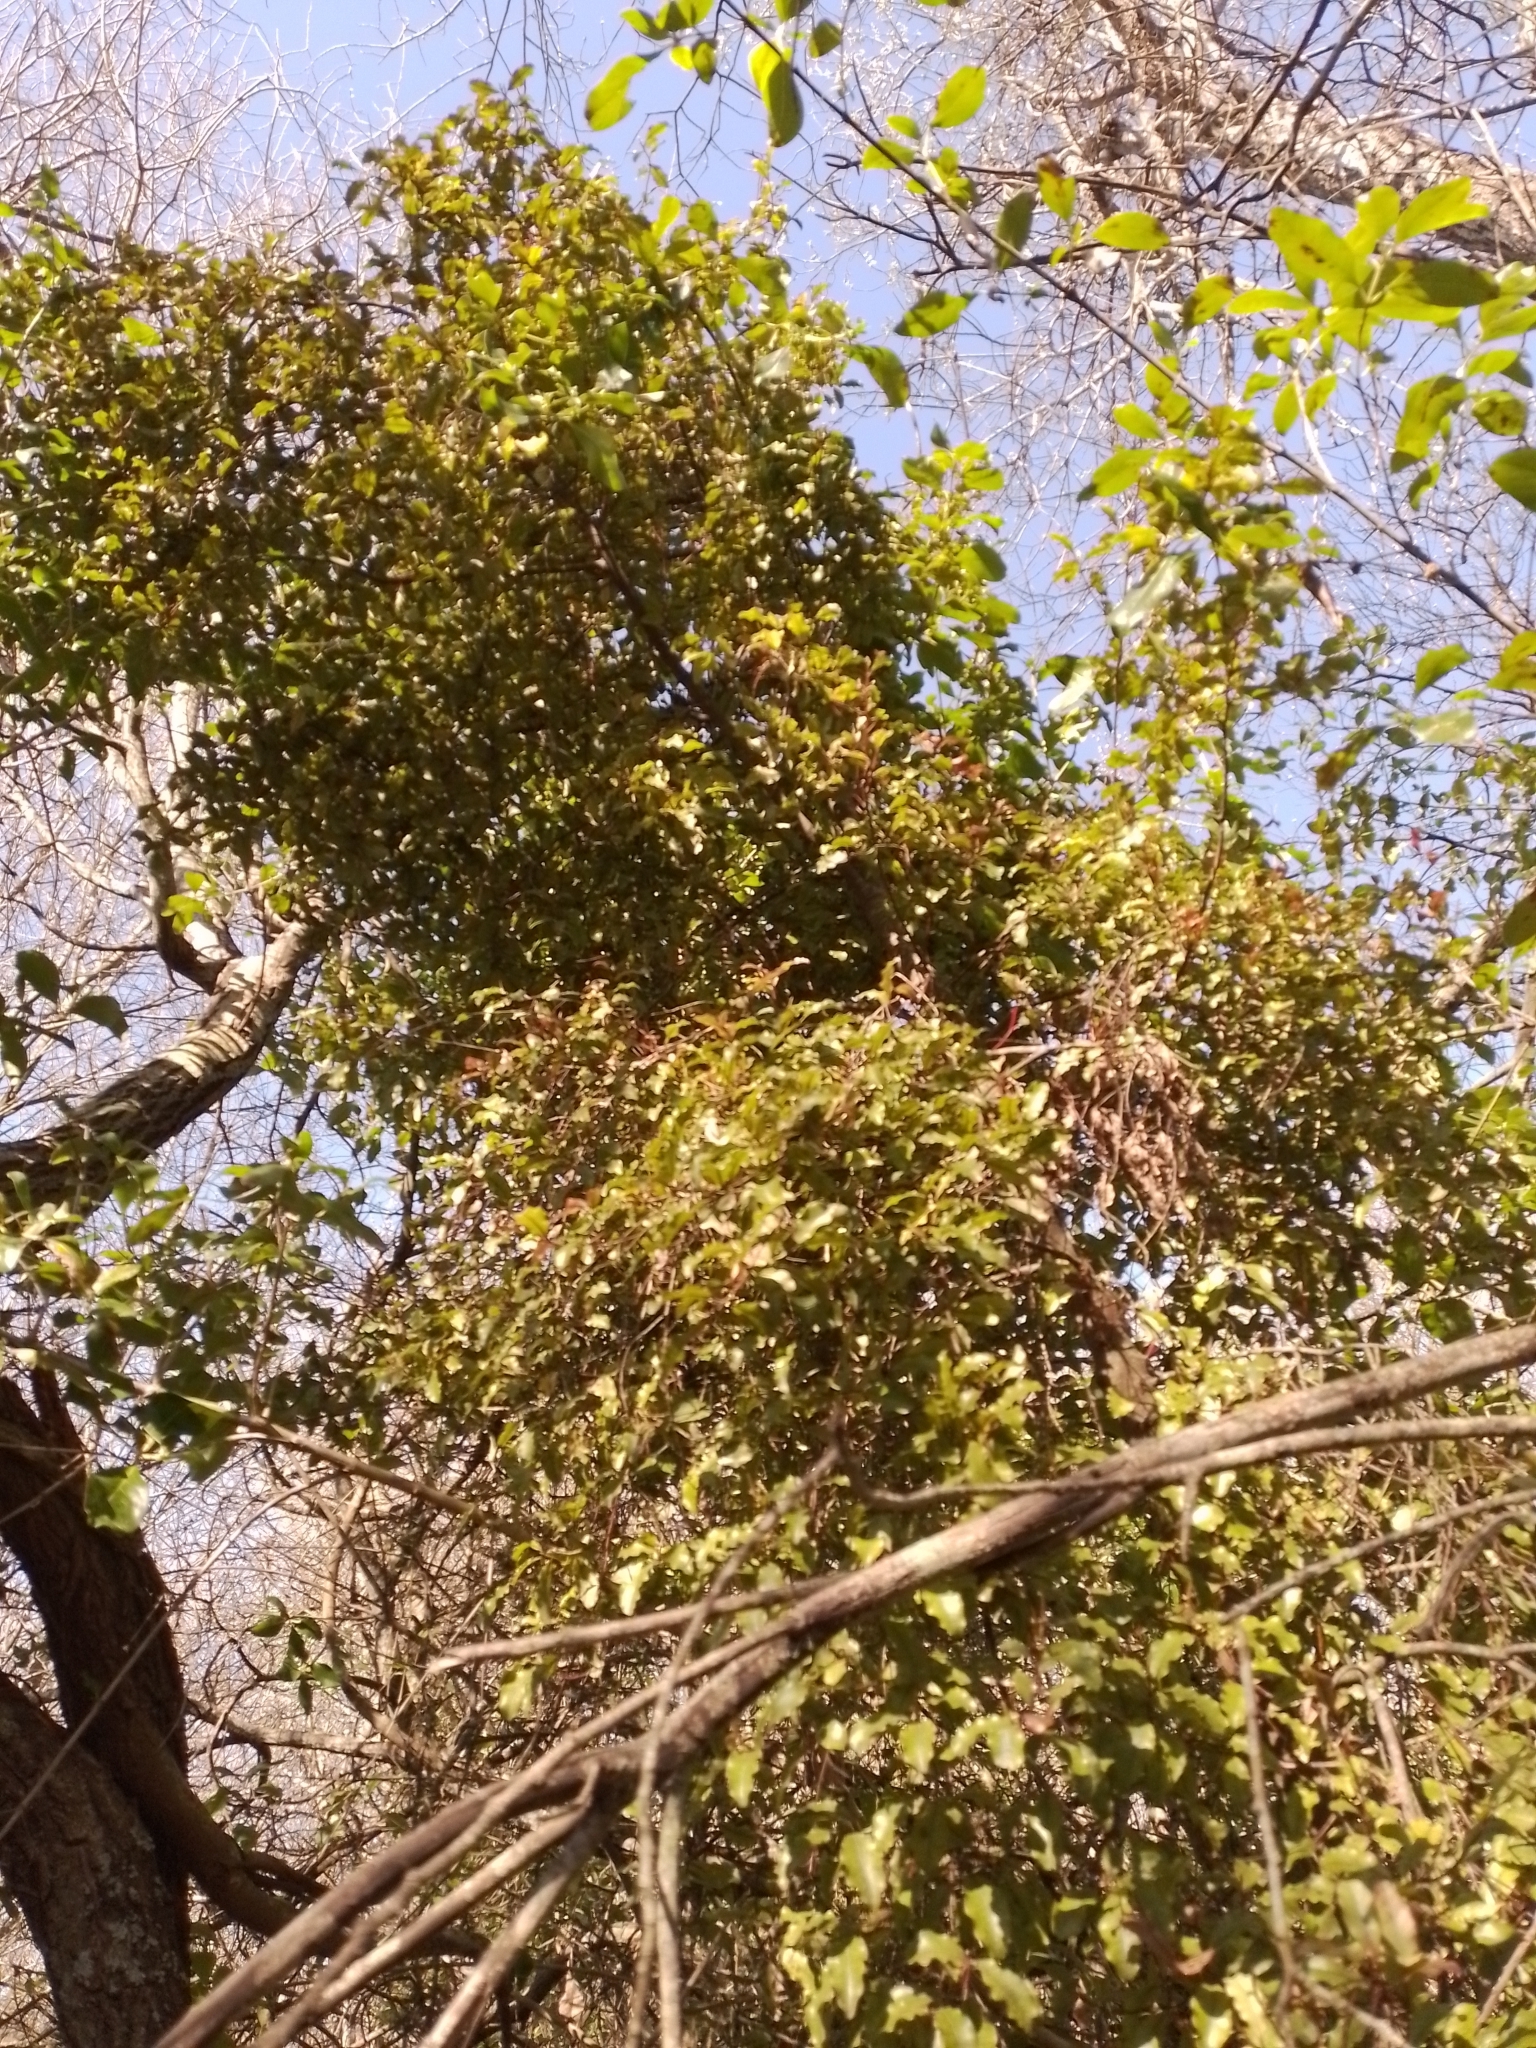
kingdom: Plantae
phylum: Tracheophyta
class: Magnoliopsida
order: Ericales
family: Primulaceae
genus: Myrsine
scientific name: Myrsine australis
